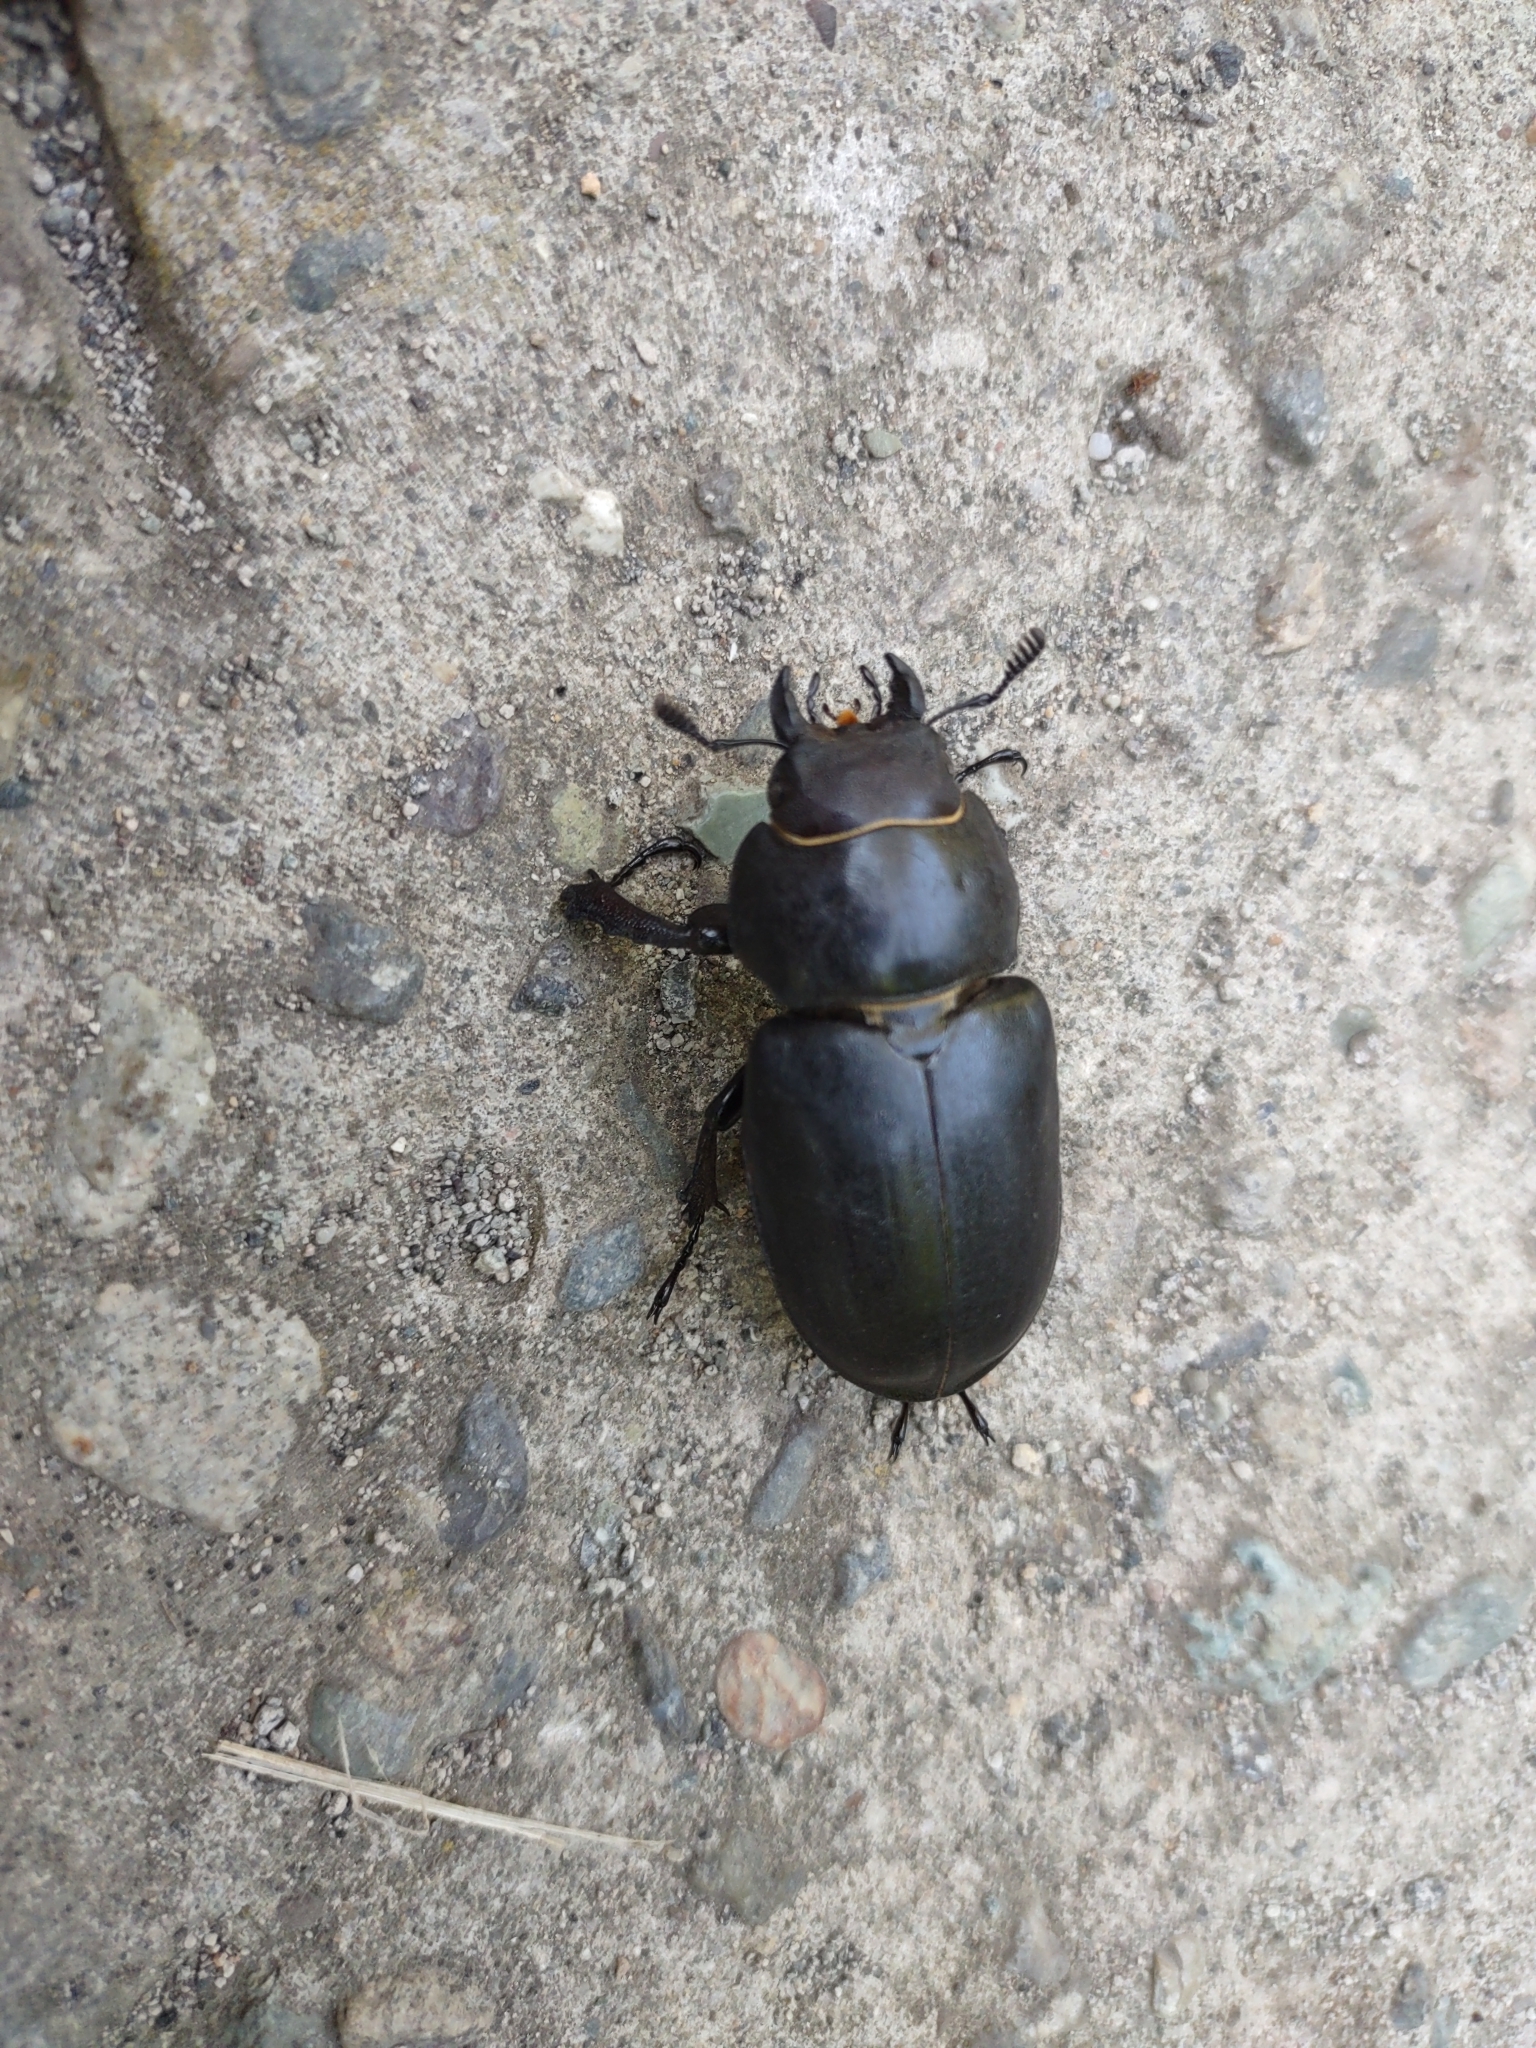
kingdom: Animalia
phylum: Arthropoda
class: Insecta
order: Coleoptera
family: Lucanidae
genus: Lucanus
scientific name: Lucanus ibericus
